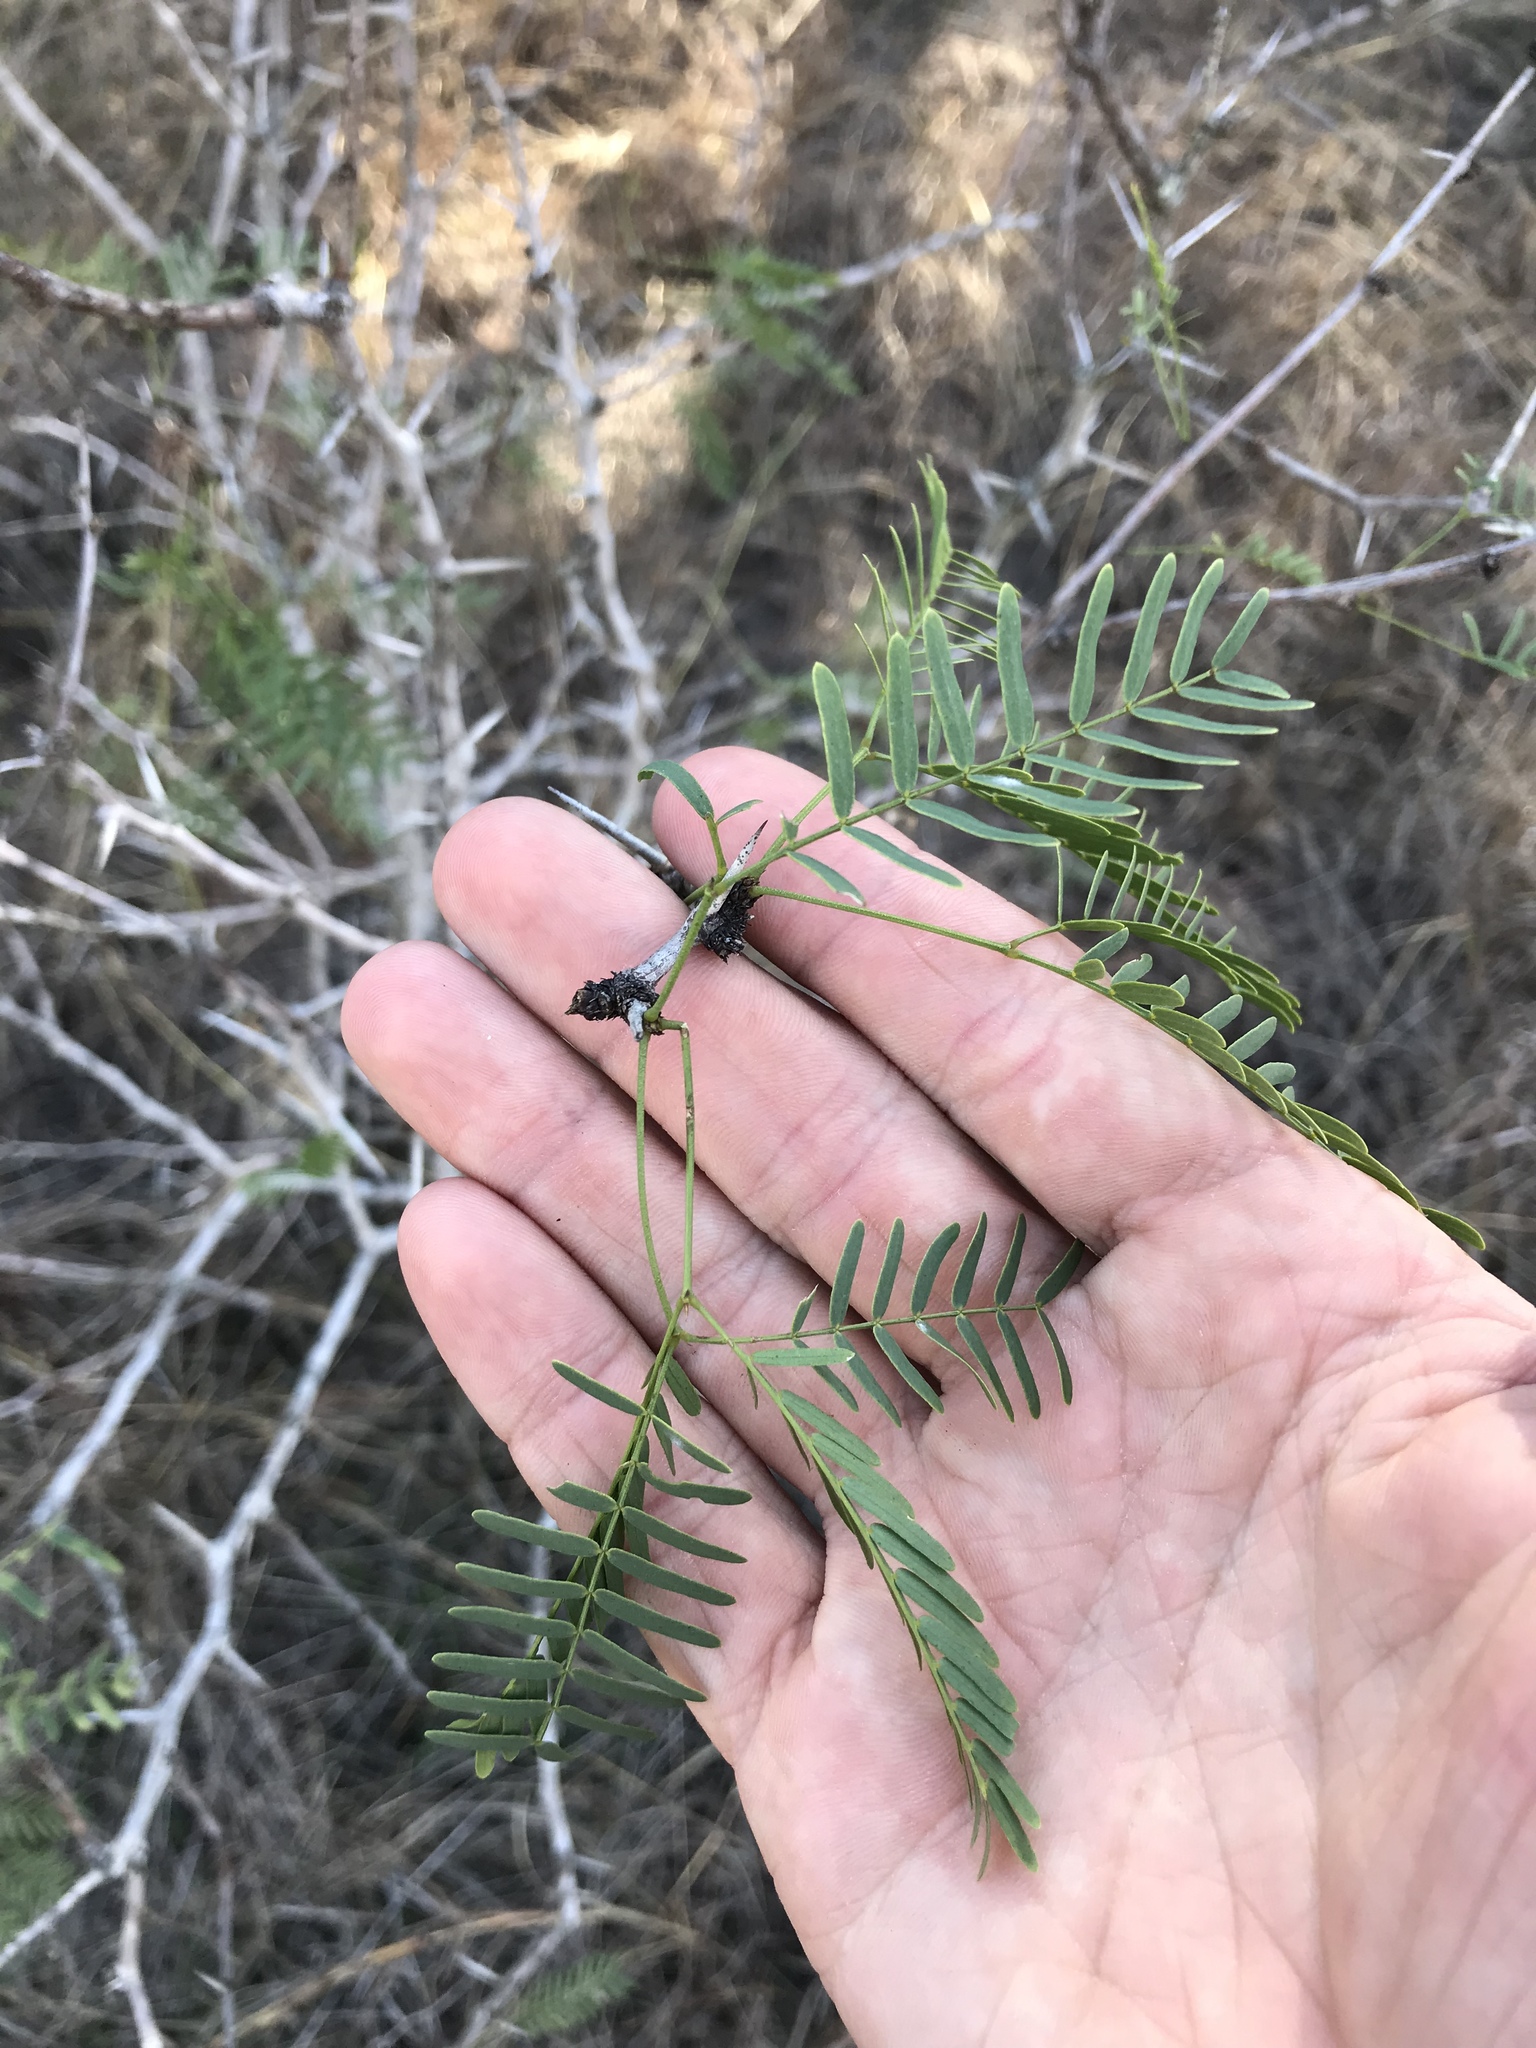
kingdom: Plantae
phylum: Tracheophyta
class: Magnoliopsida
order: Fabales
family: Fabaceae
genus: Prosopis
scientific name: Prosopis glandulosa
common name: Honey mesquite
